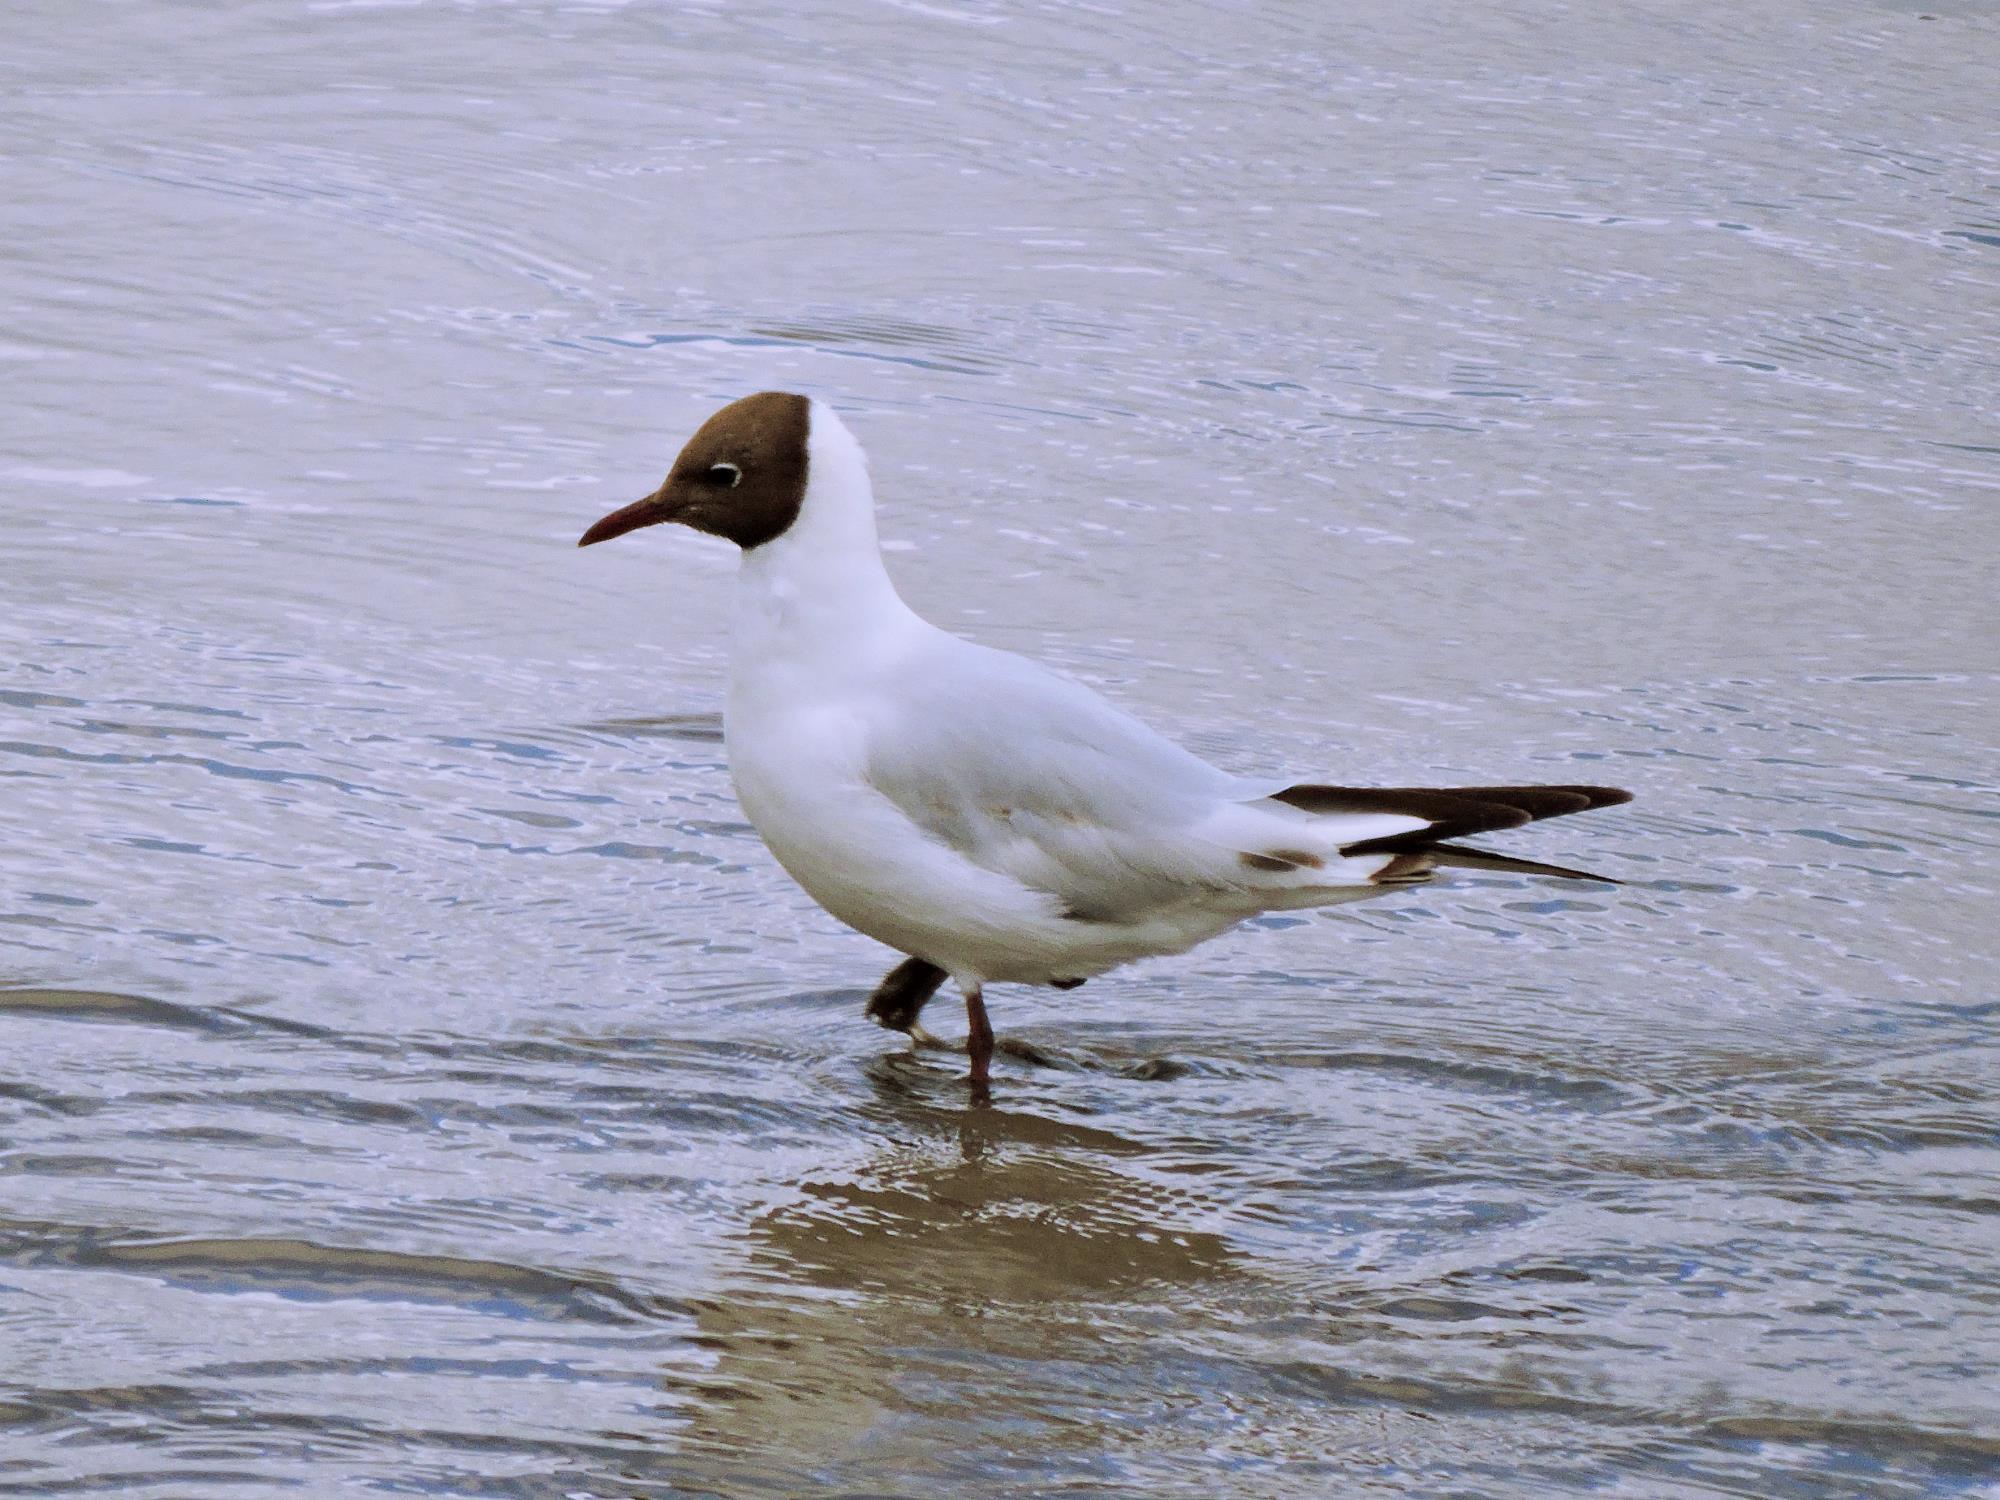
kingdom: Animalia
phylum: Chordata
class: Aves
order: Charadriiformes
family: Laridae
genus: Chroicocephalus
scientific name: Chroicocephalus ridibundus
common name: Black-headed gull
